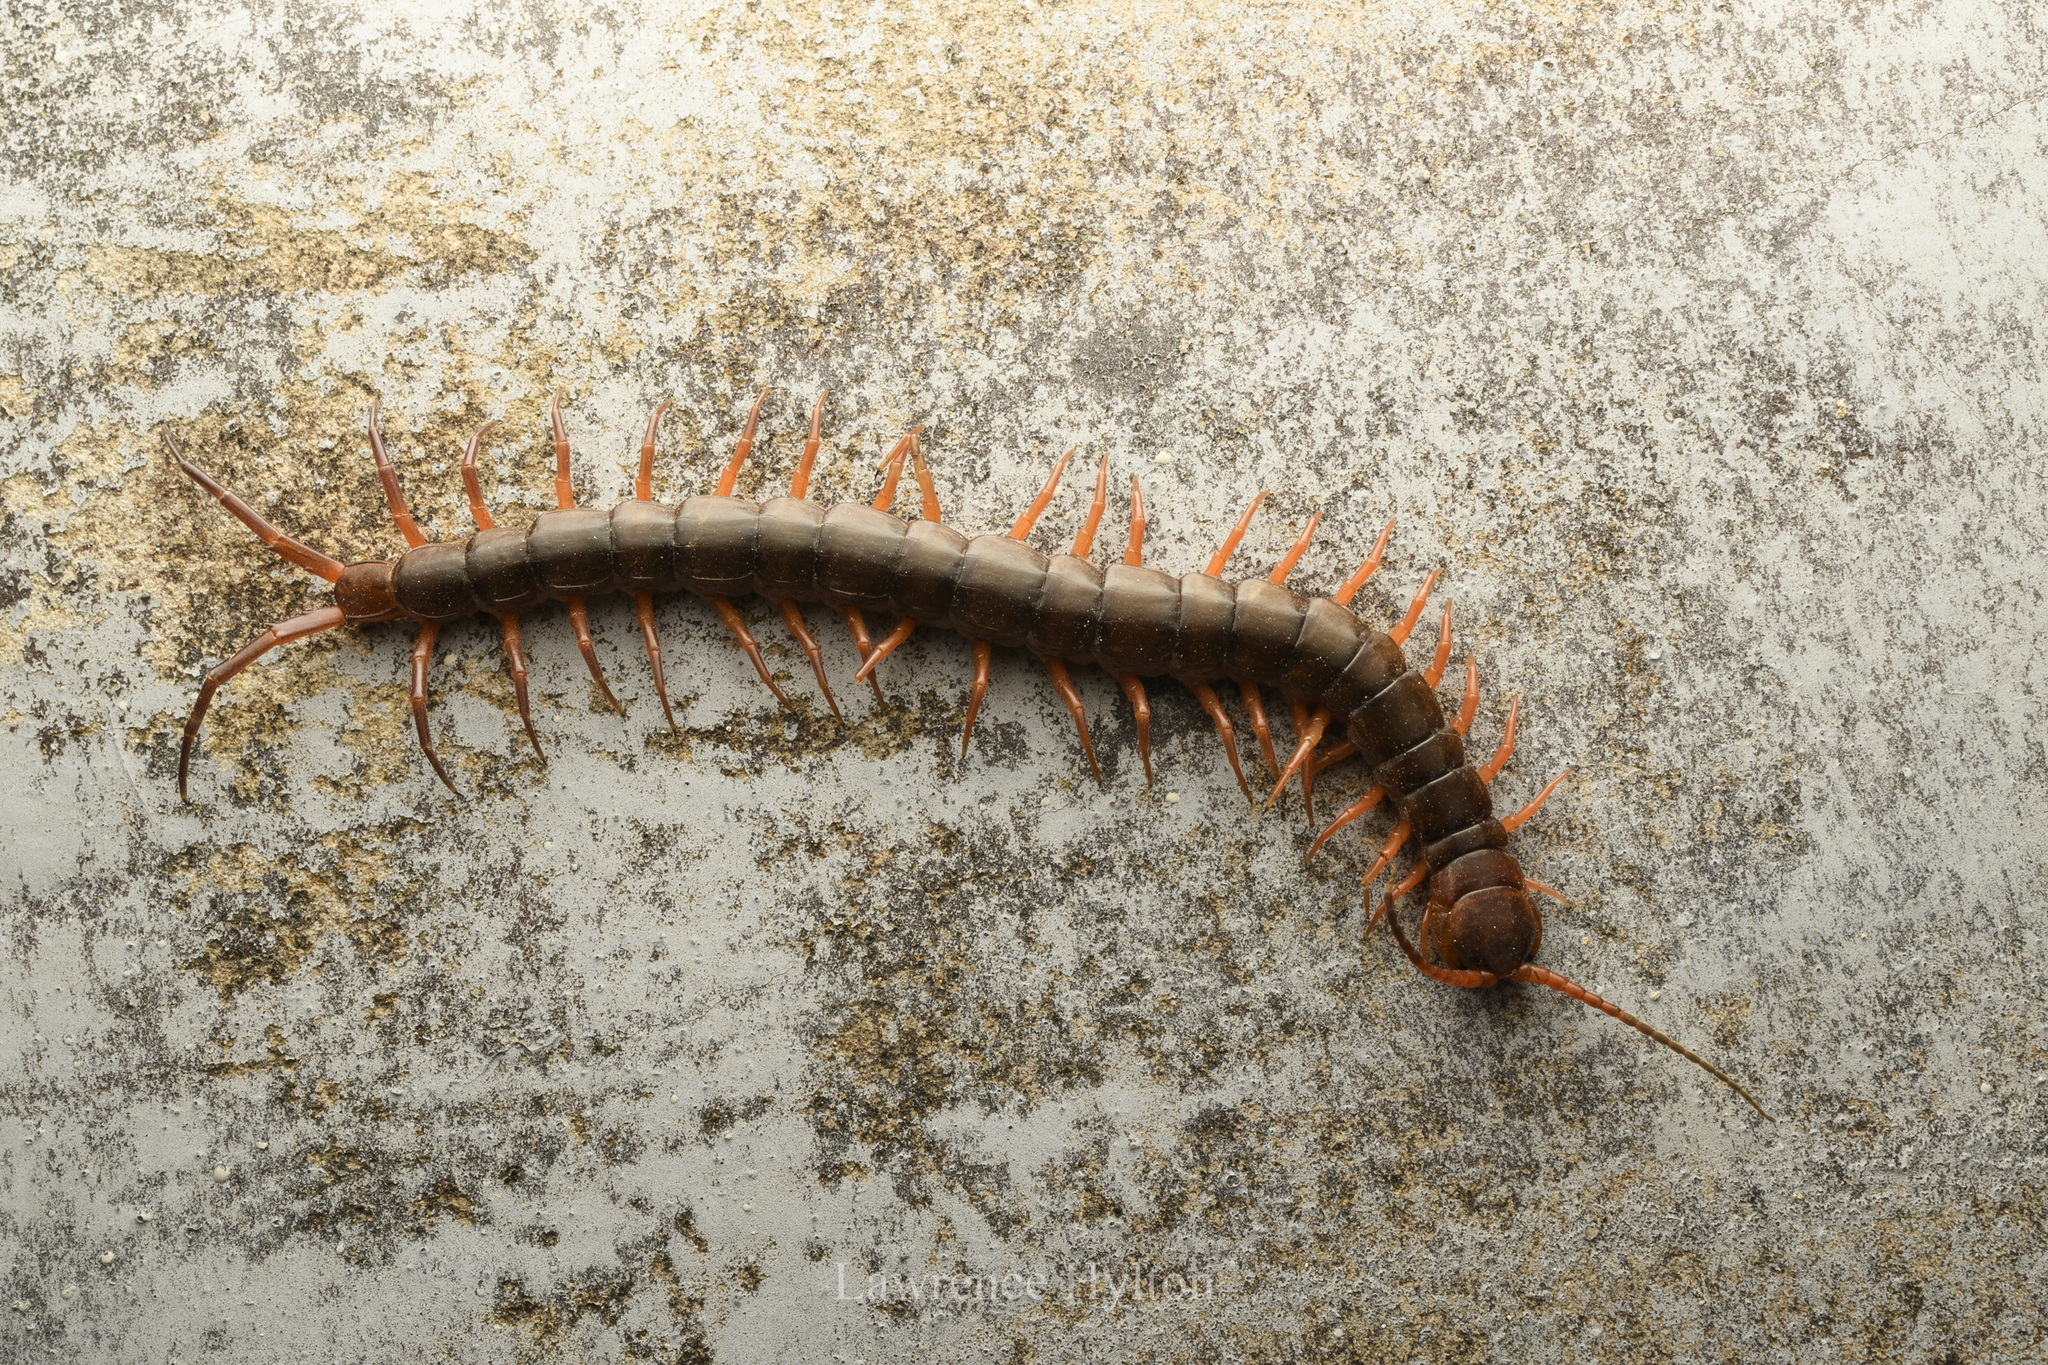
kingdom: Animalia
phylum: Arthropoda
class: Chilopoda
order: Scolopendromorpha
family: Scolopendridae
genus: Scolopendra
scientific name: Scolopendra dehaani
